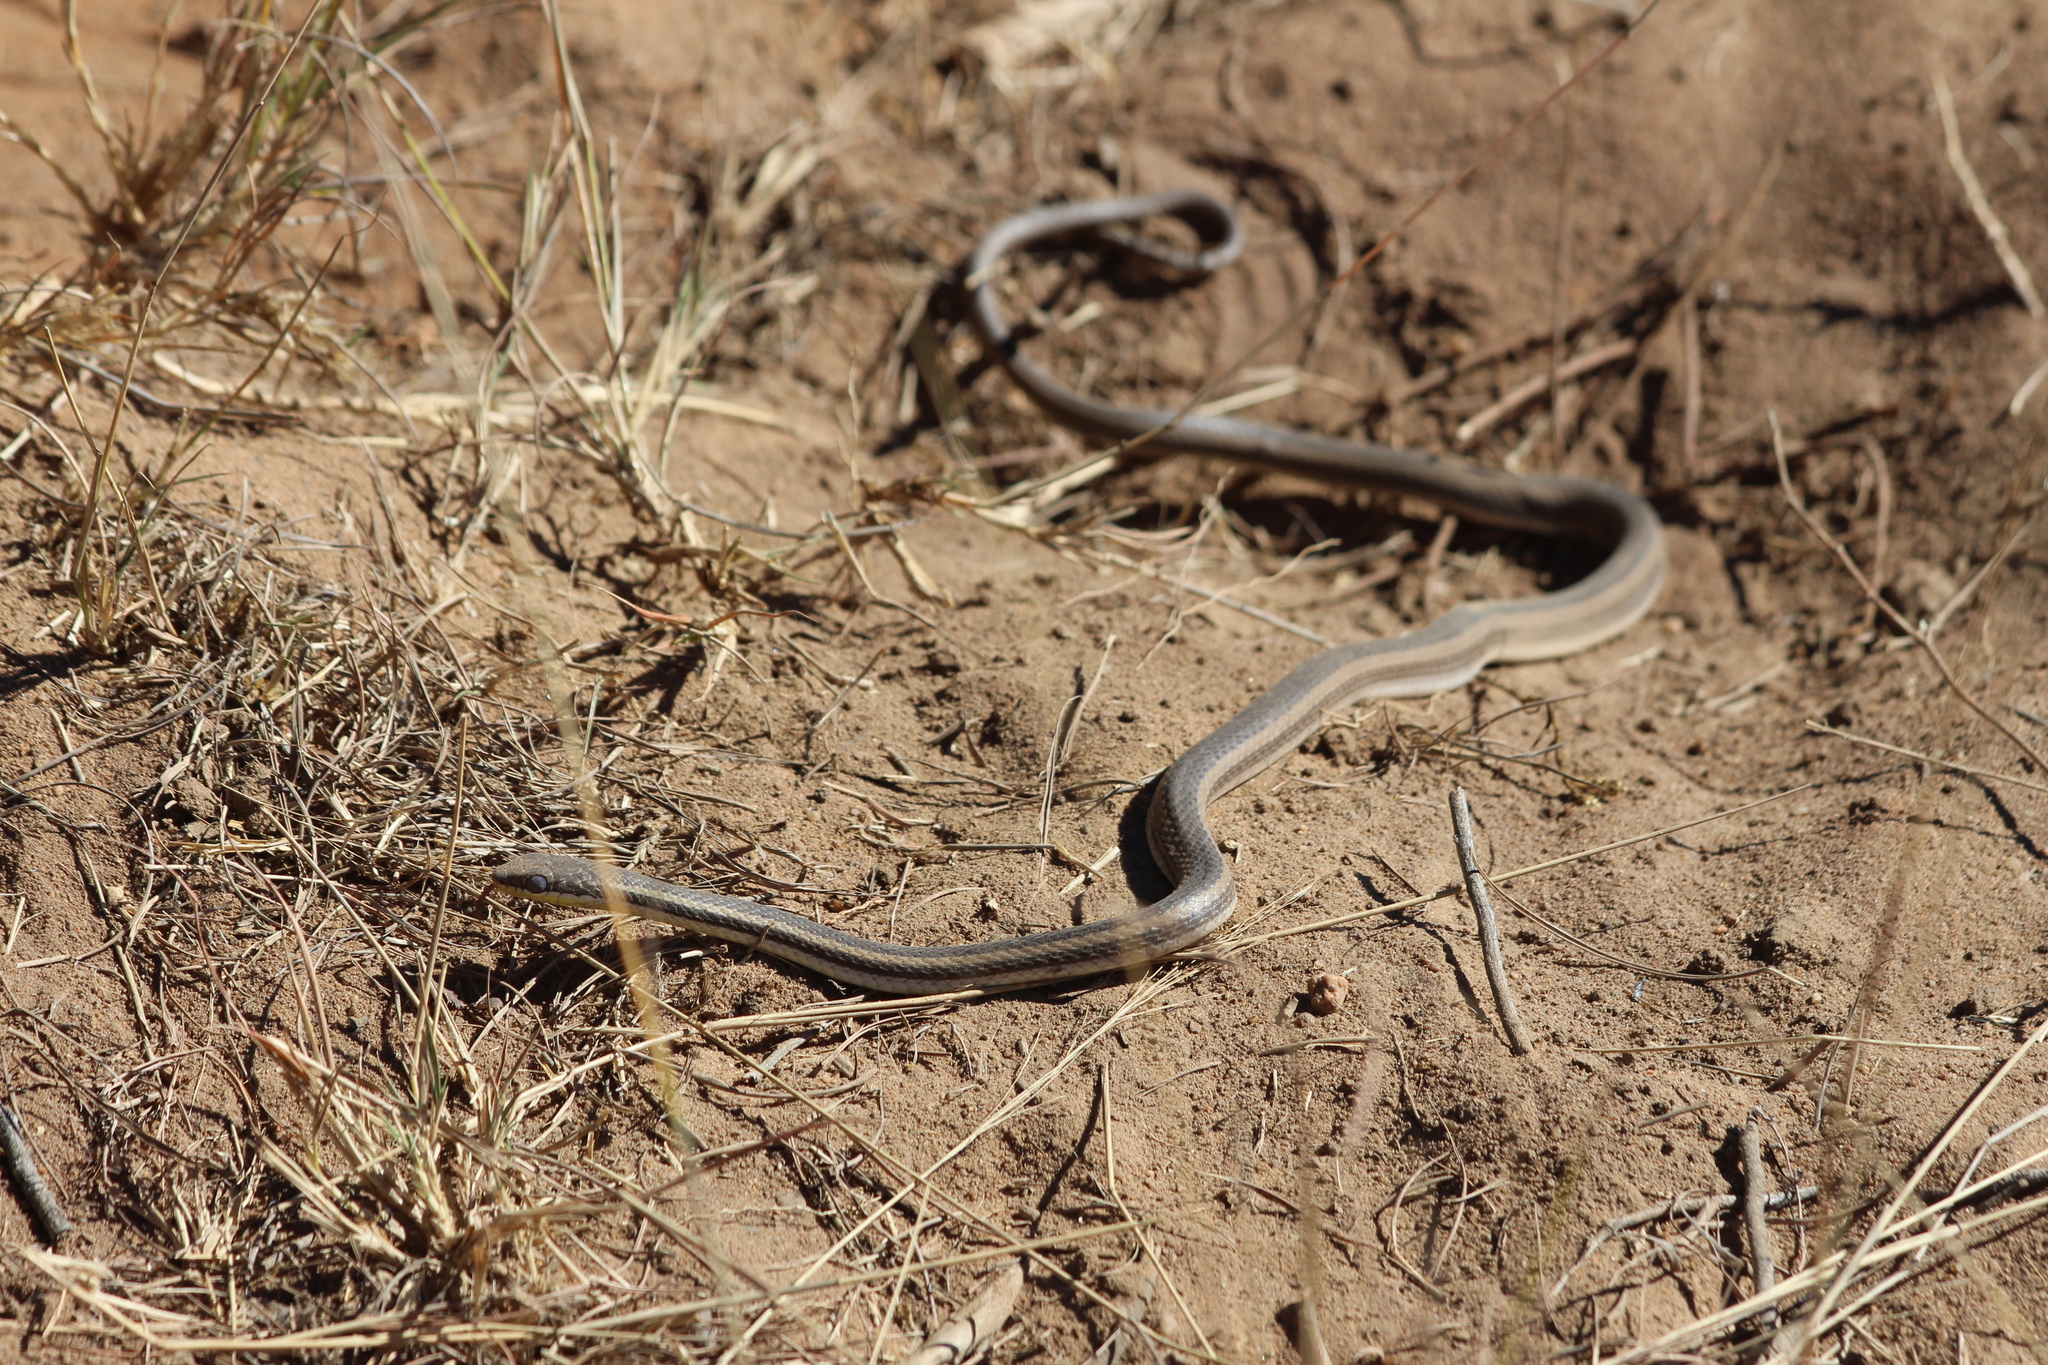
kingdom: Animalia
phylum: Chordata
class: Squamata
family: Pseudoxyrhophiidae
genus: Dromicodryas
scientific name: Dromicodryas bernieri
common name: Bernier's striped snake
